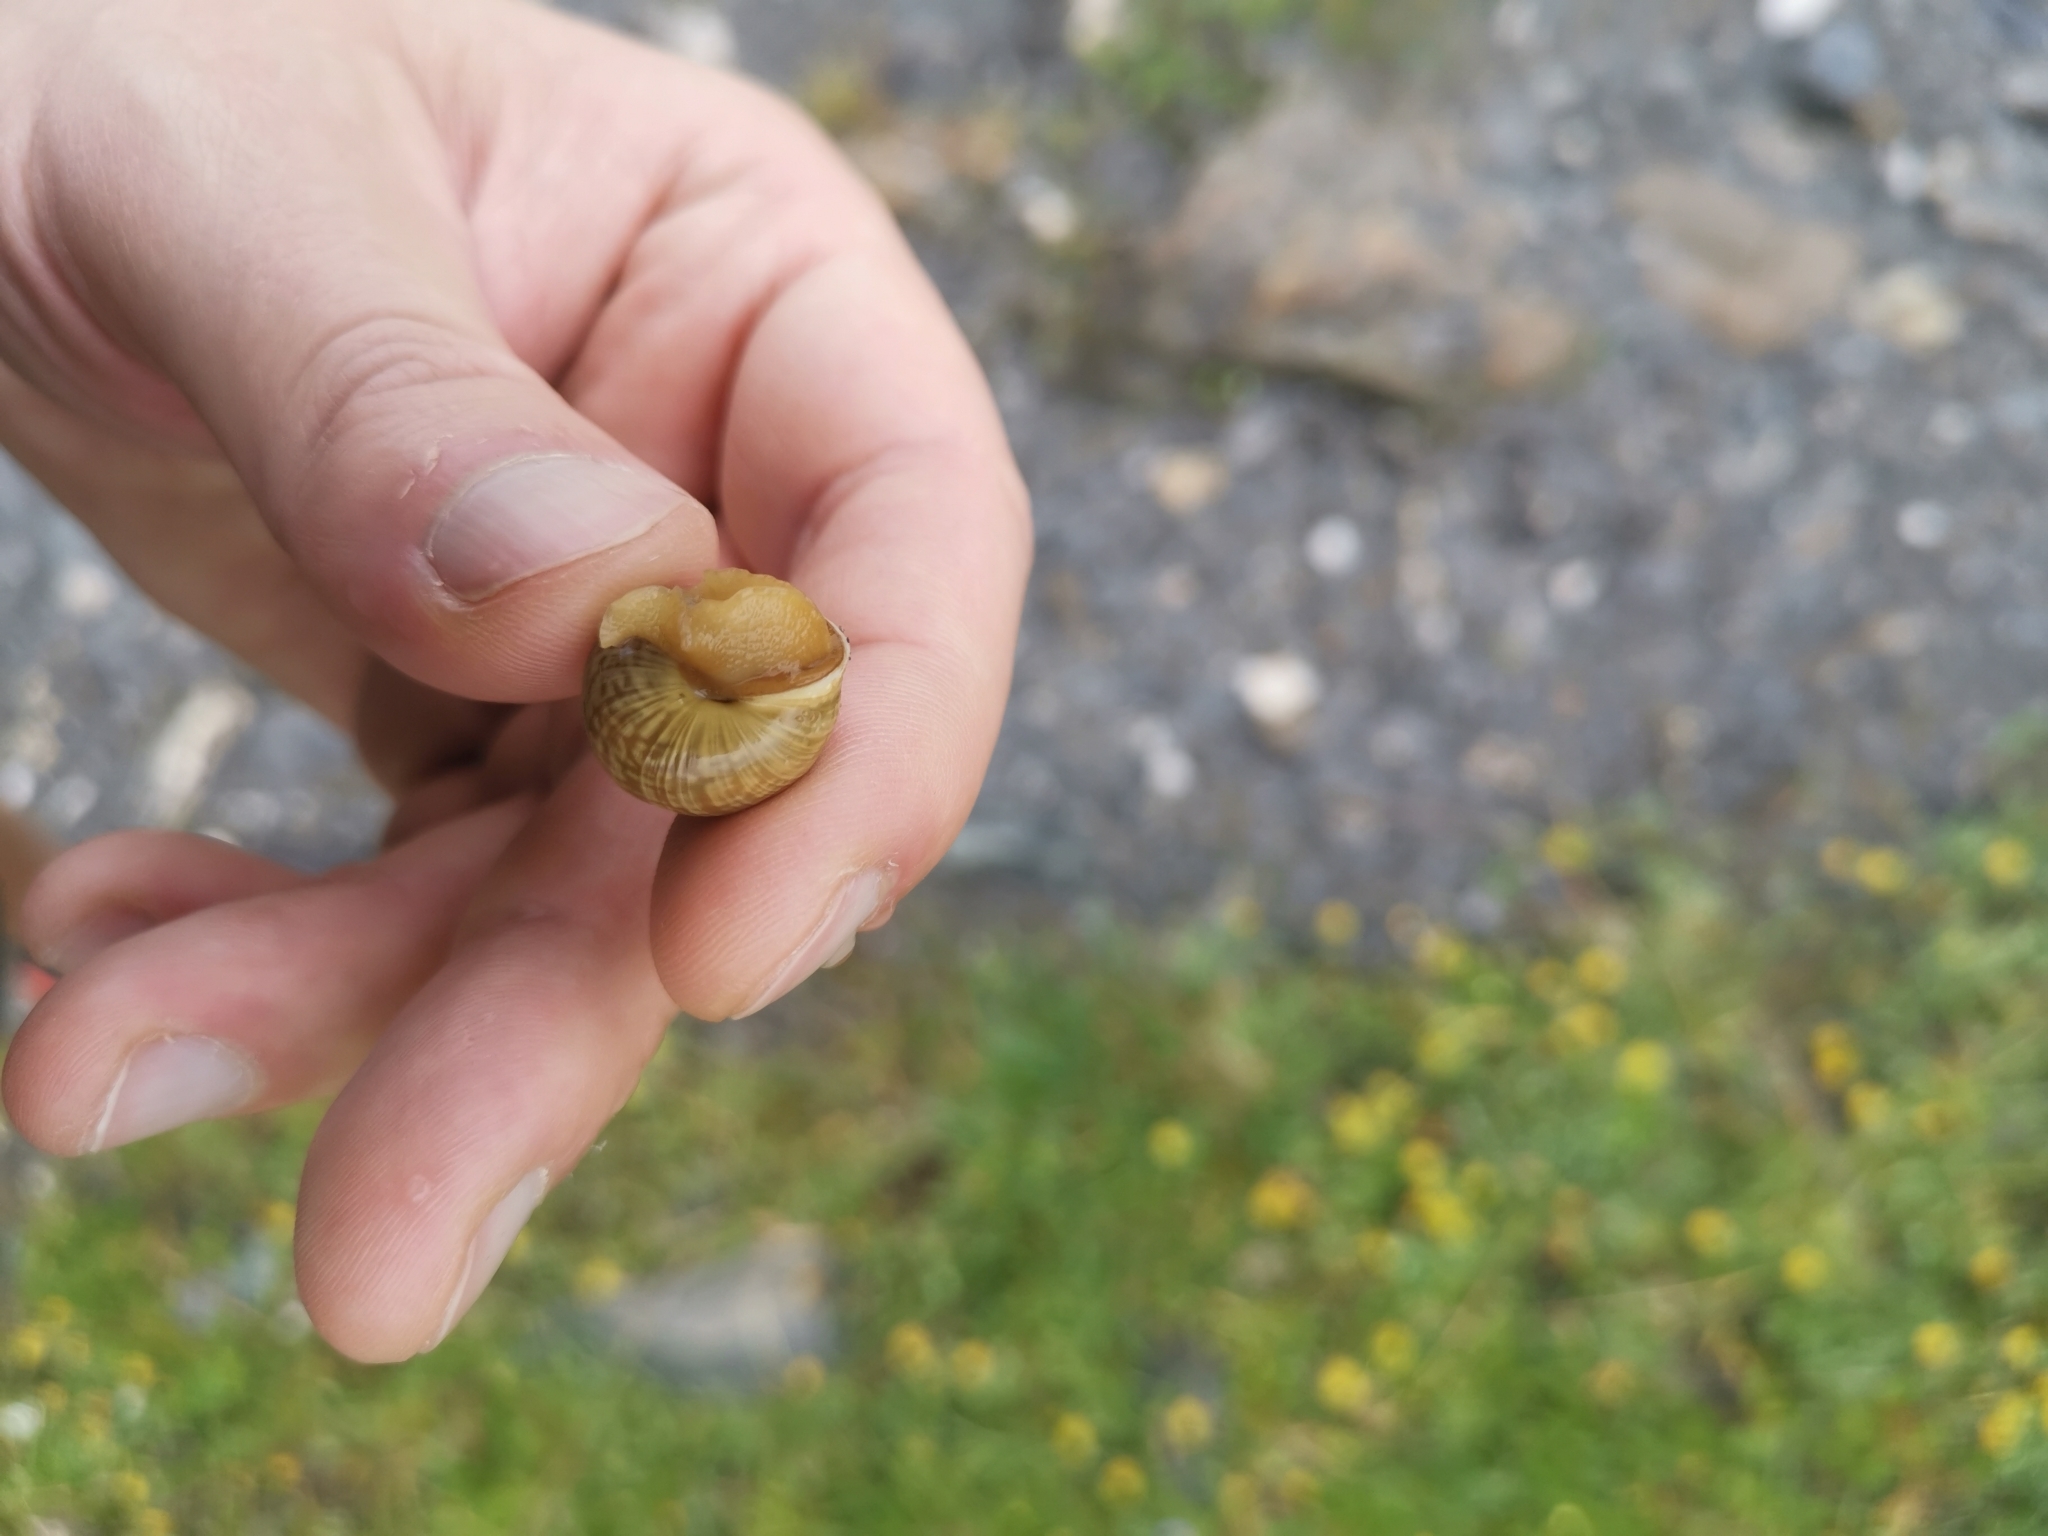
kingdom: Animalia
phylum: Mollusca
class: Gastropoda
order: Stylommatophora
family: Helicidae
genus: Arianta
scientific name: Arianta arbustorum
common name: Copse snail
